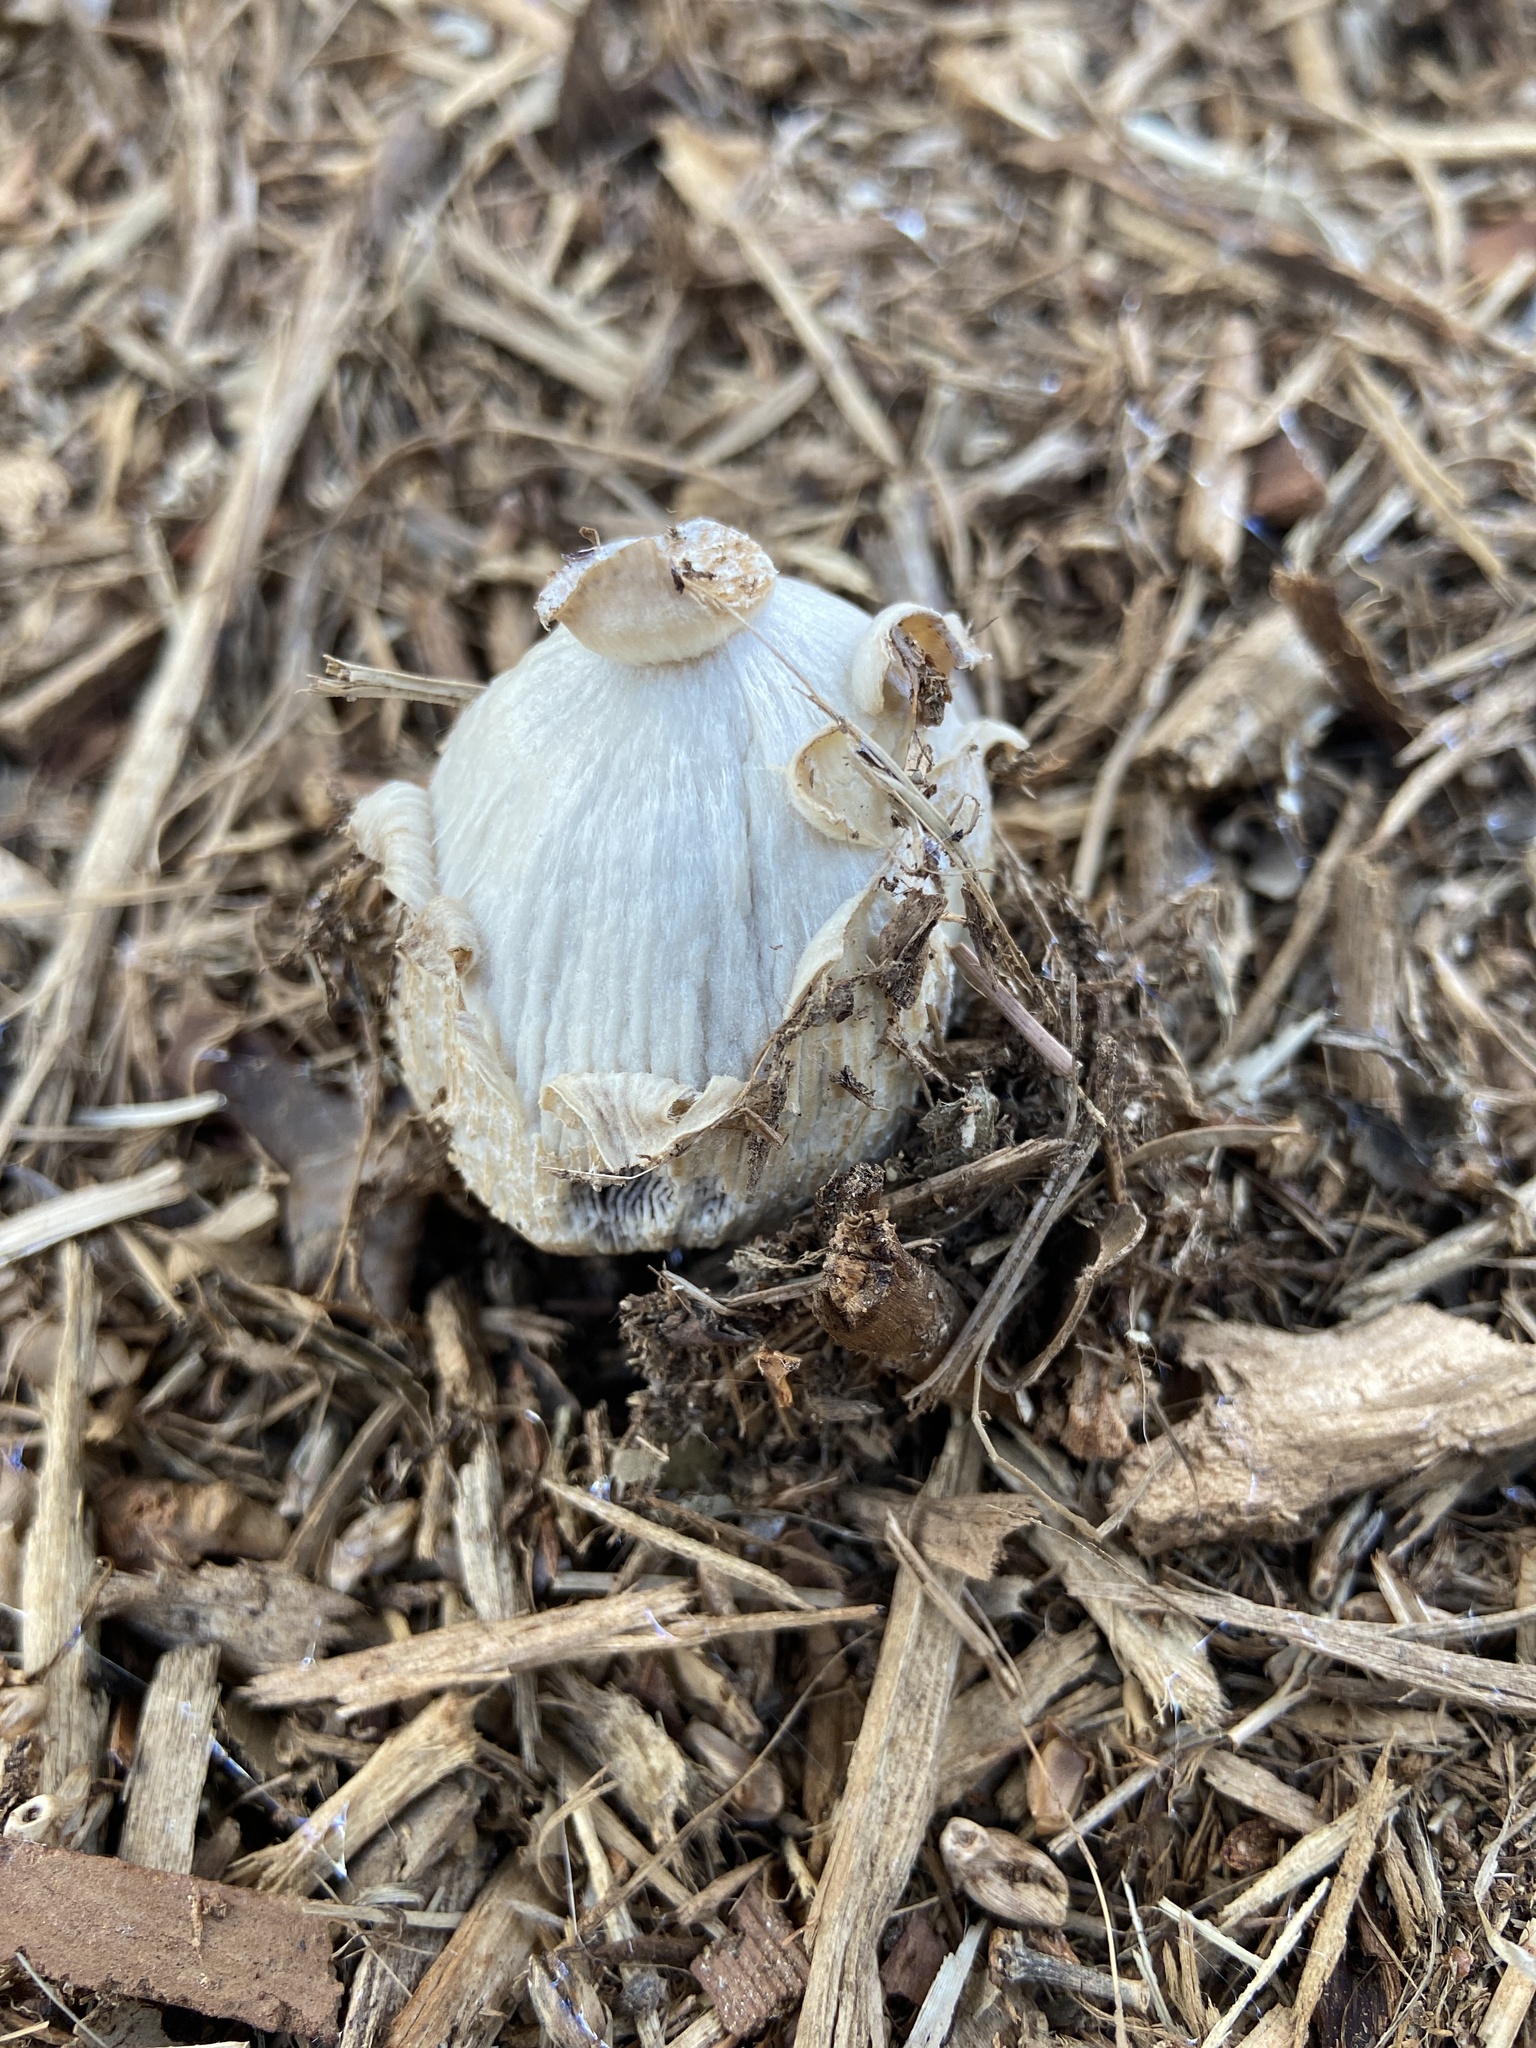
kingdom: Fungi
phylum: Basidiomycota
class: Agaricomycetes
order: Agaricales
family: Psathyrellaceae
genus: Coprinellus
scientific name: Coprinellus flocculosus
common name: Flocculose inkcap
